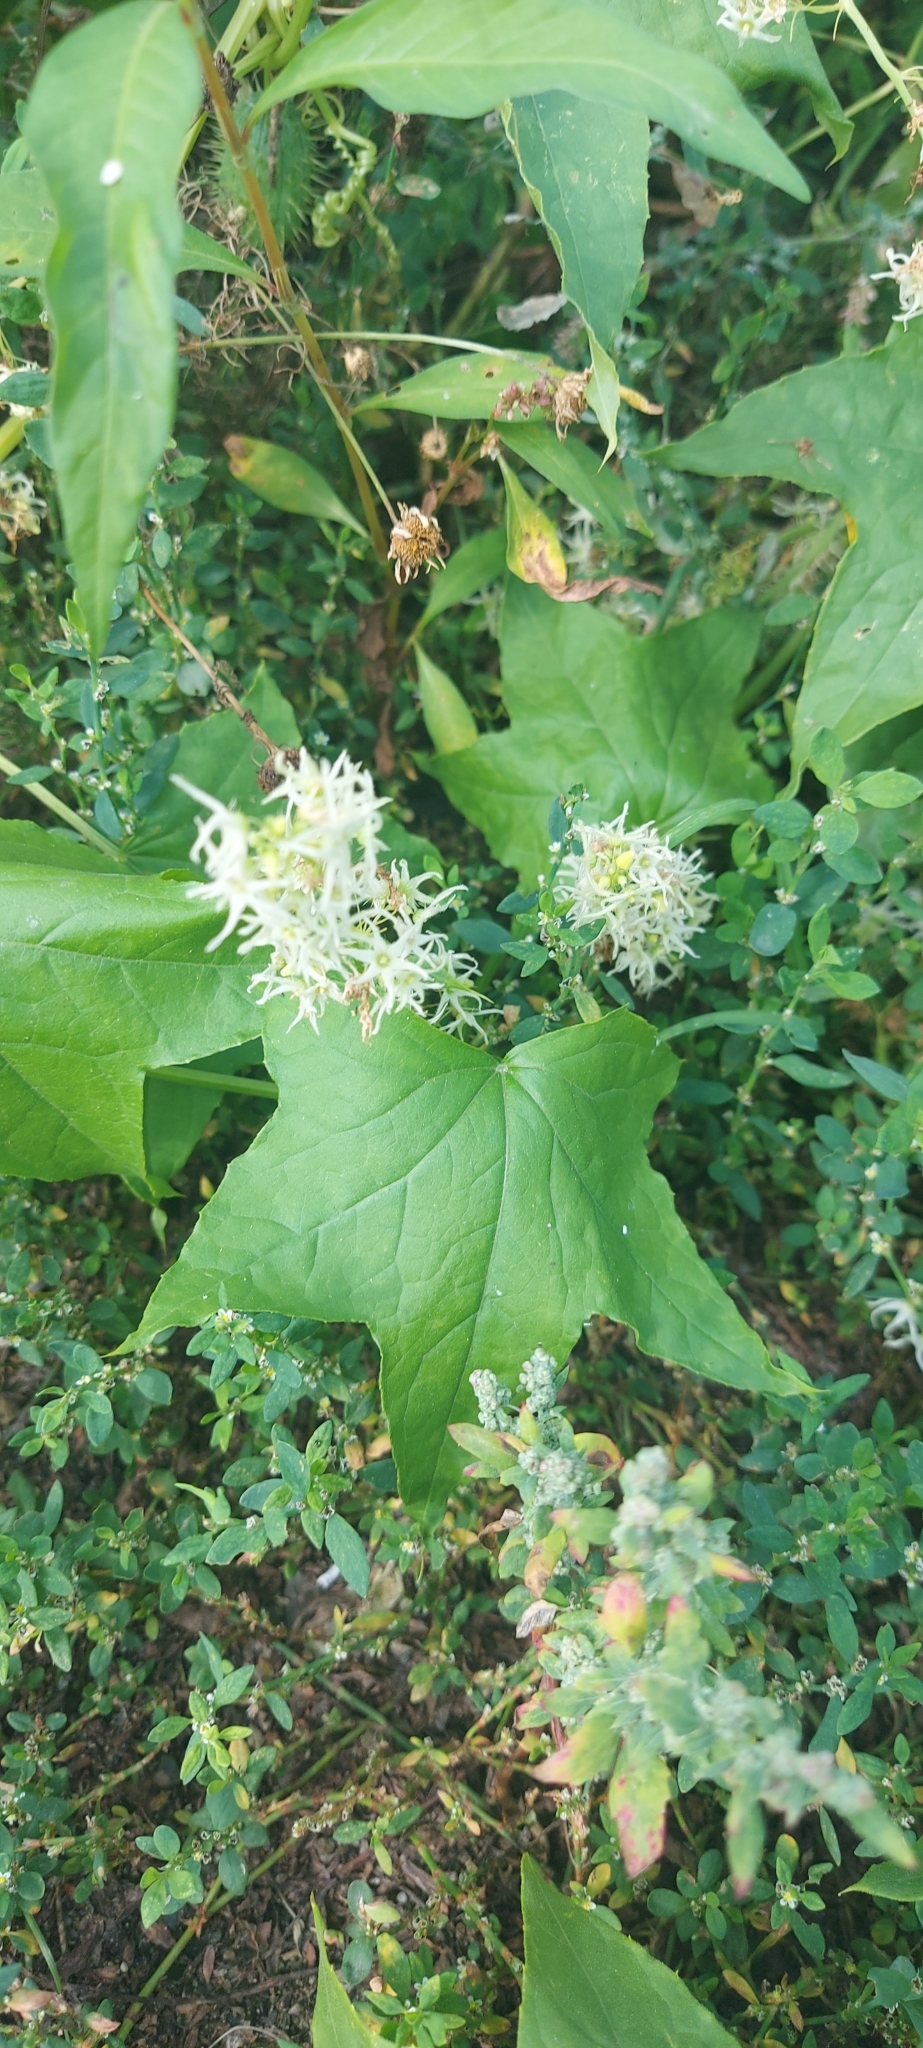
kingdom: Plantae
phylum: Tracheophyta
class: Magnoliopsida
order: Cucurbitales
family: Cucurbitaceae
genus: Echinocystis
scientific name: Echinocystis lobata
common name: Wild cucumber
